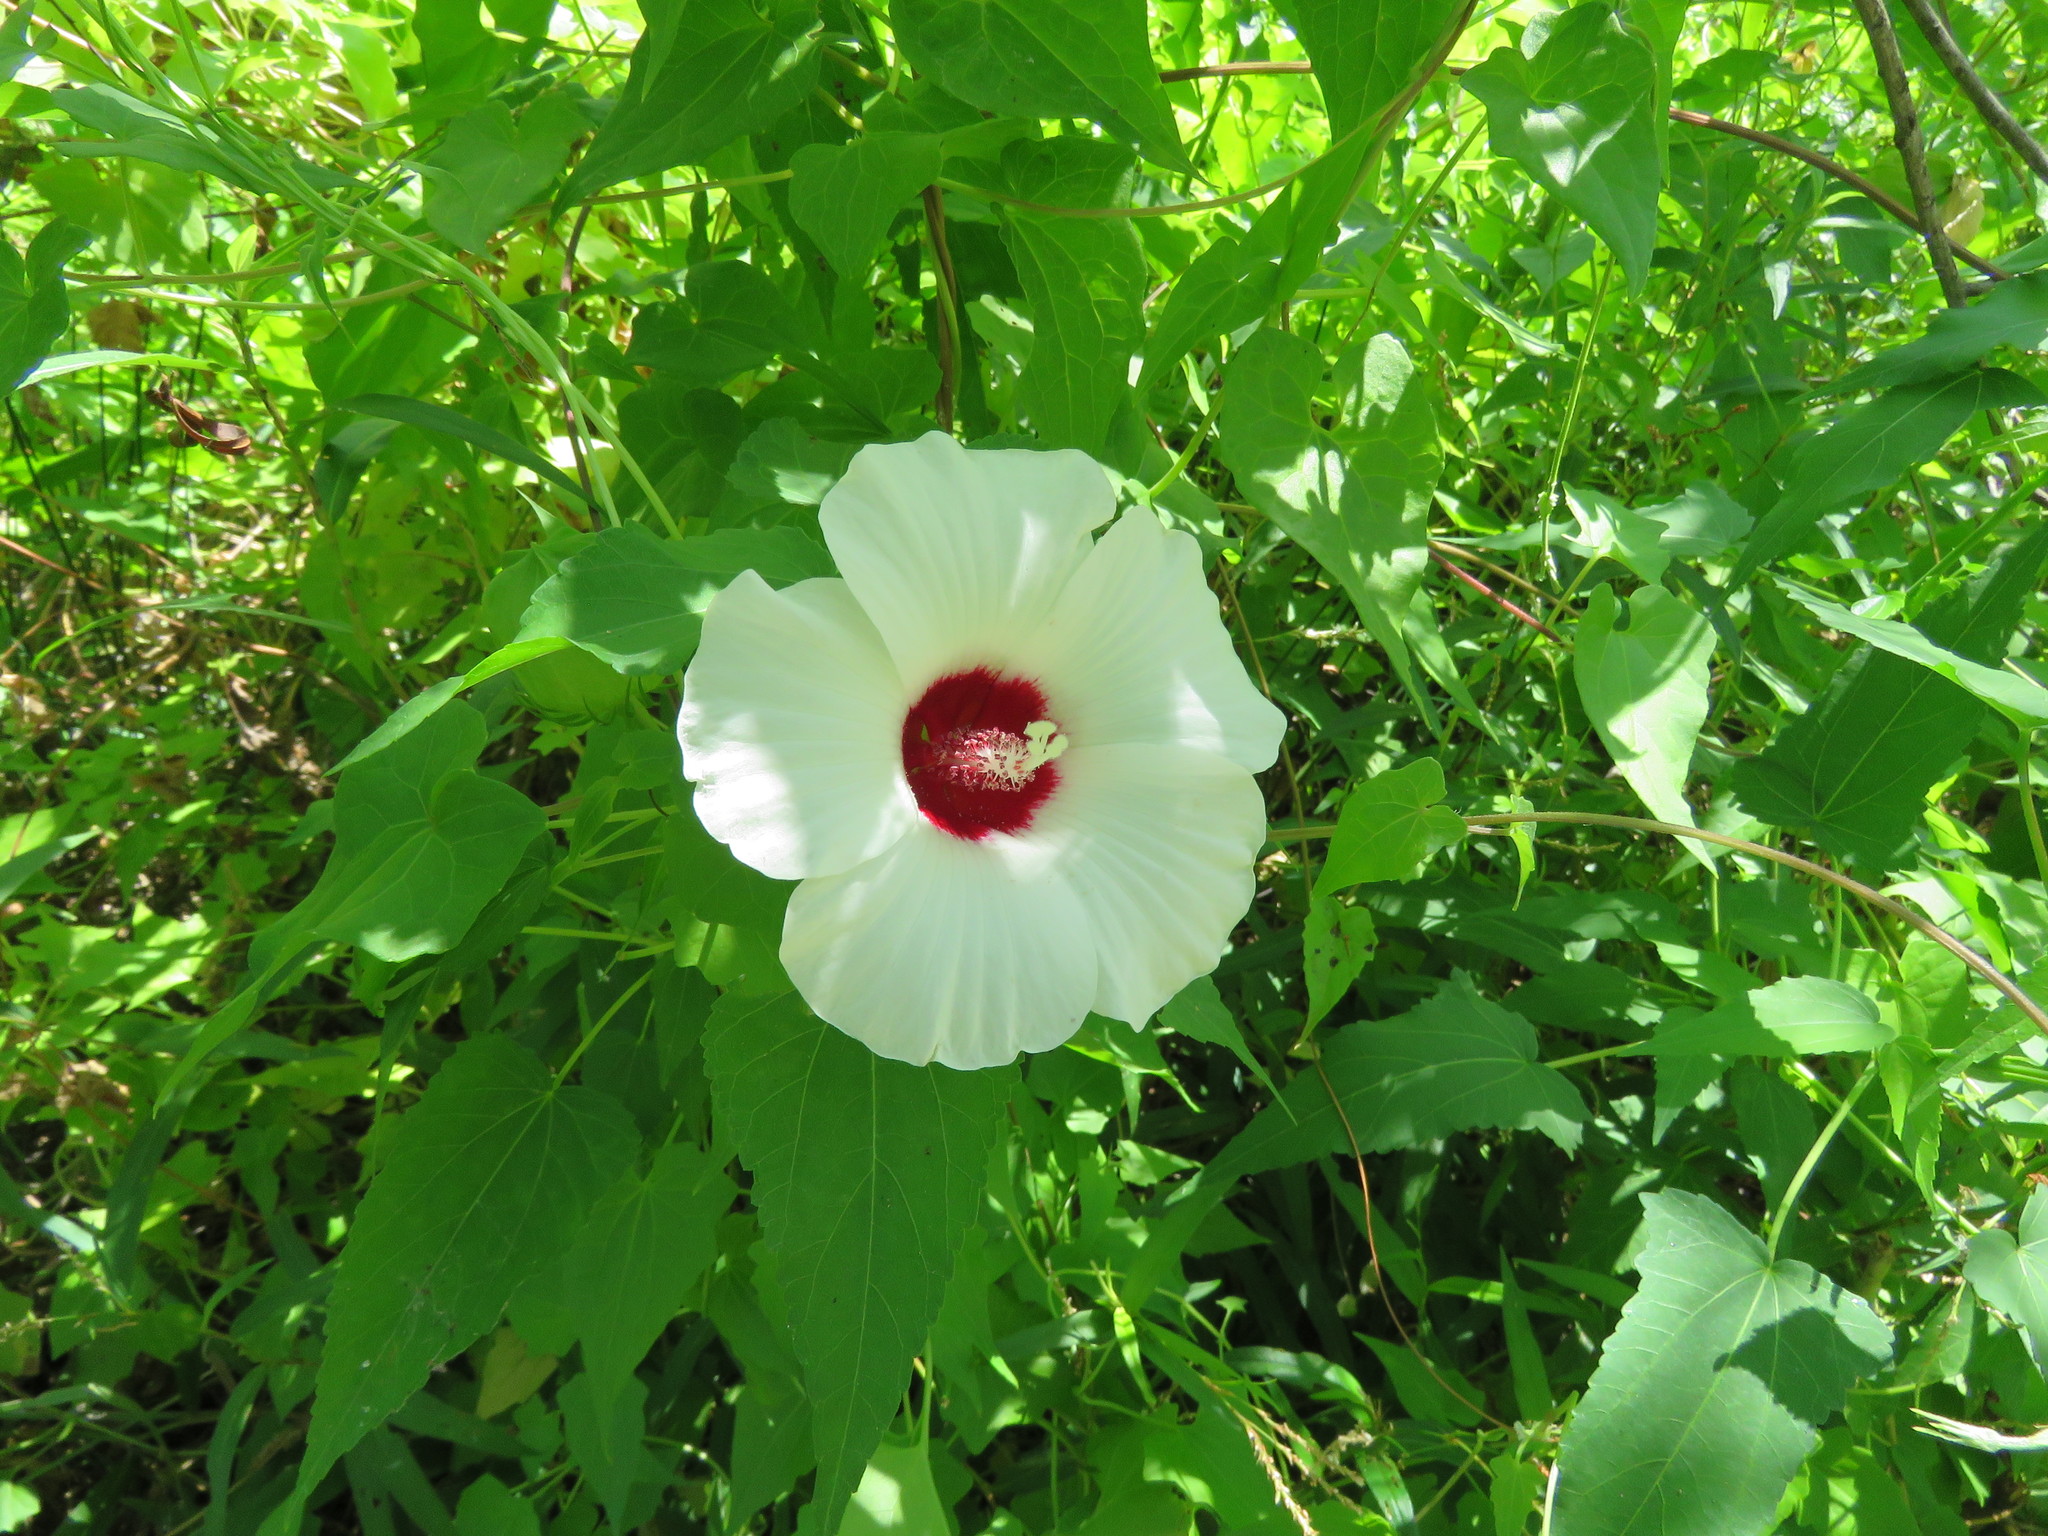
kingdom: Plantae
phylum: Tracheophyta
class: Magnoliopsida
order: Malvales
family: Malvaceae
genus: Hibiscus
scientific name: Hibiscus laevis
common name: Scarlet rose-mallow
